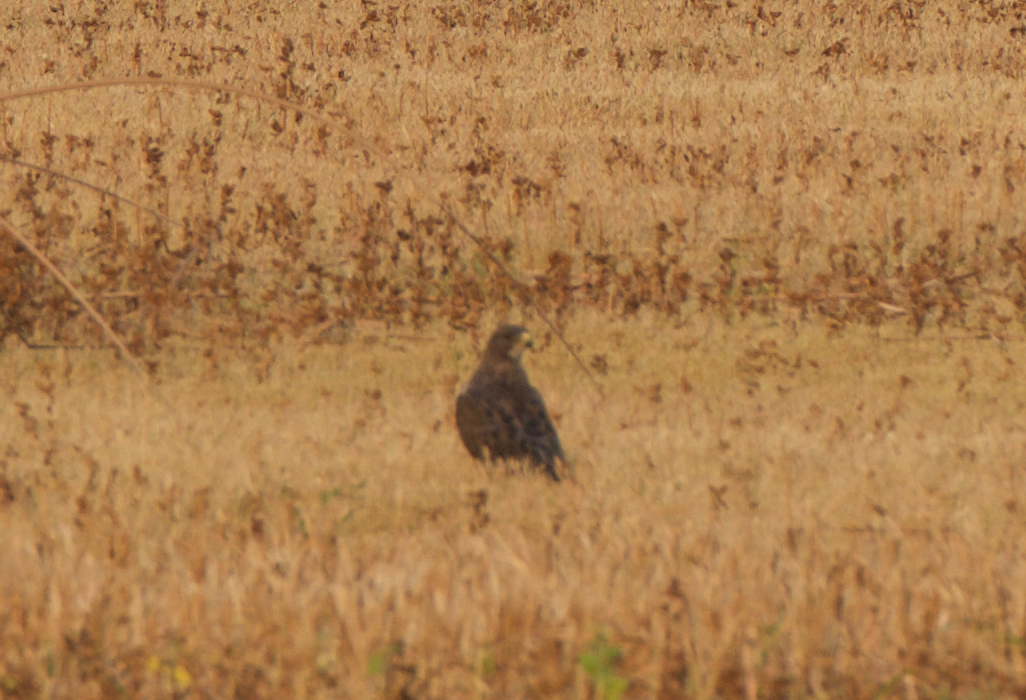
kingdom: Animalia
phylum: Chordata
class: Aves
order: Accipitriformes
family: Accipitridae
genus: Buteo
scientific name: Buteo swainsoni
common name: Swainson's hawk
